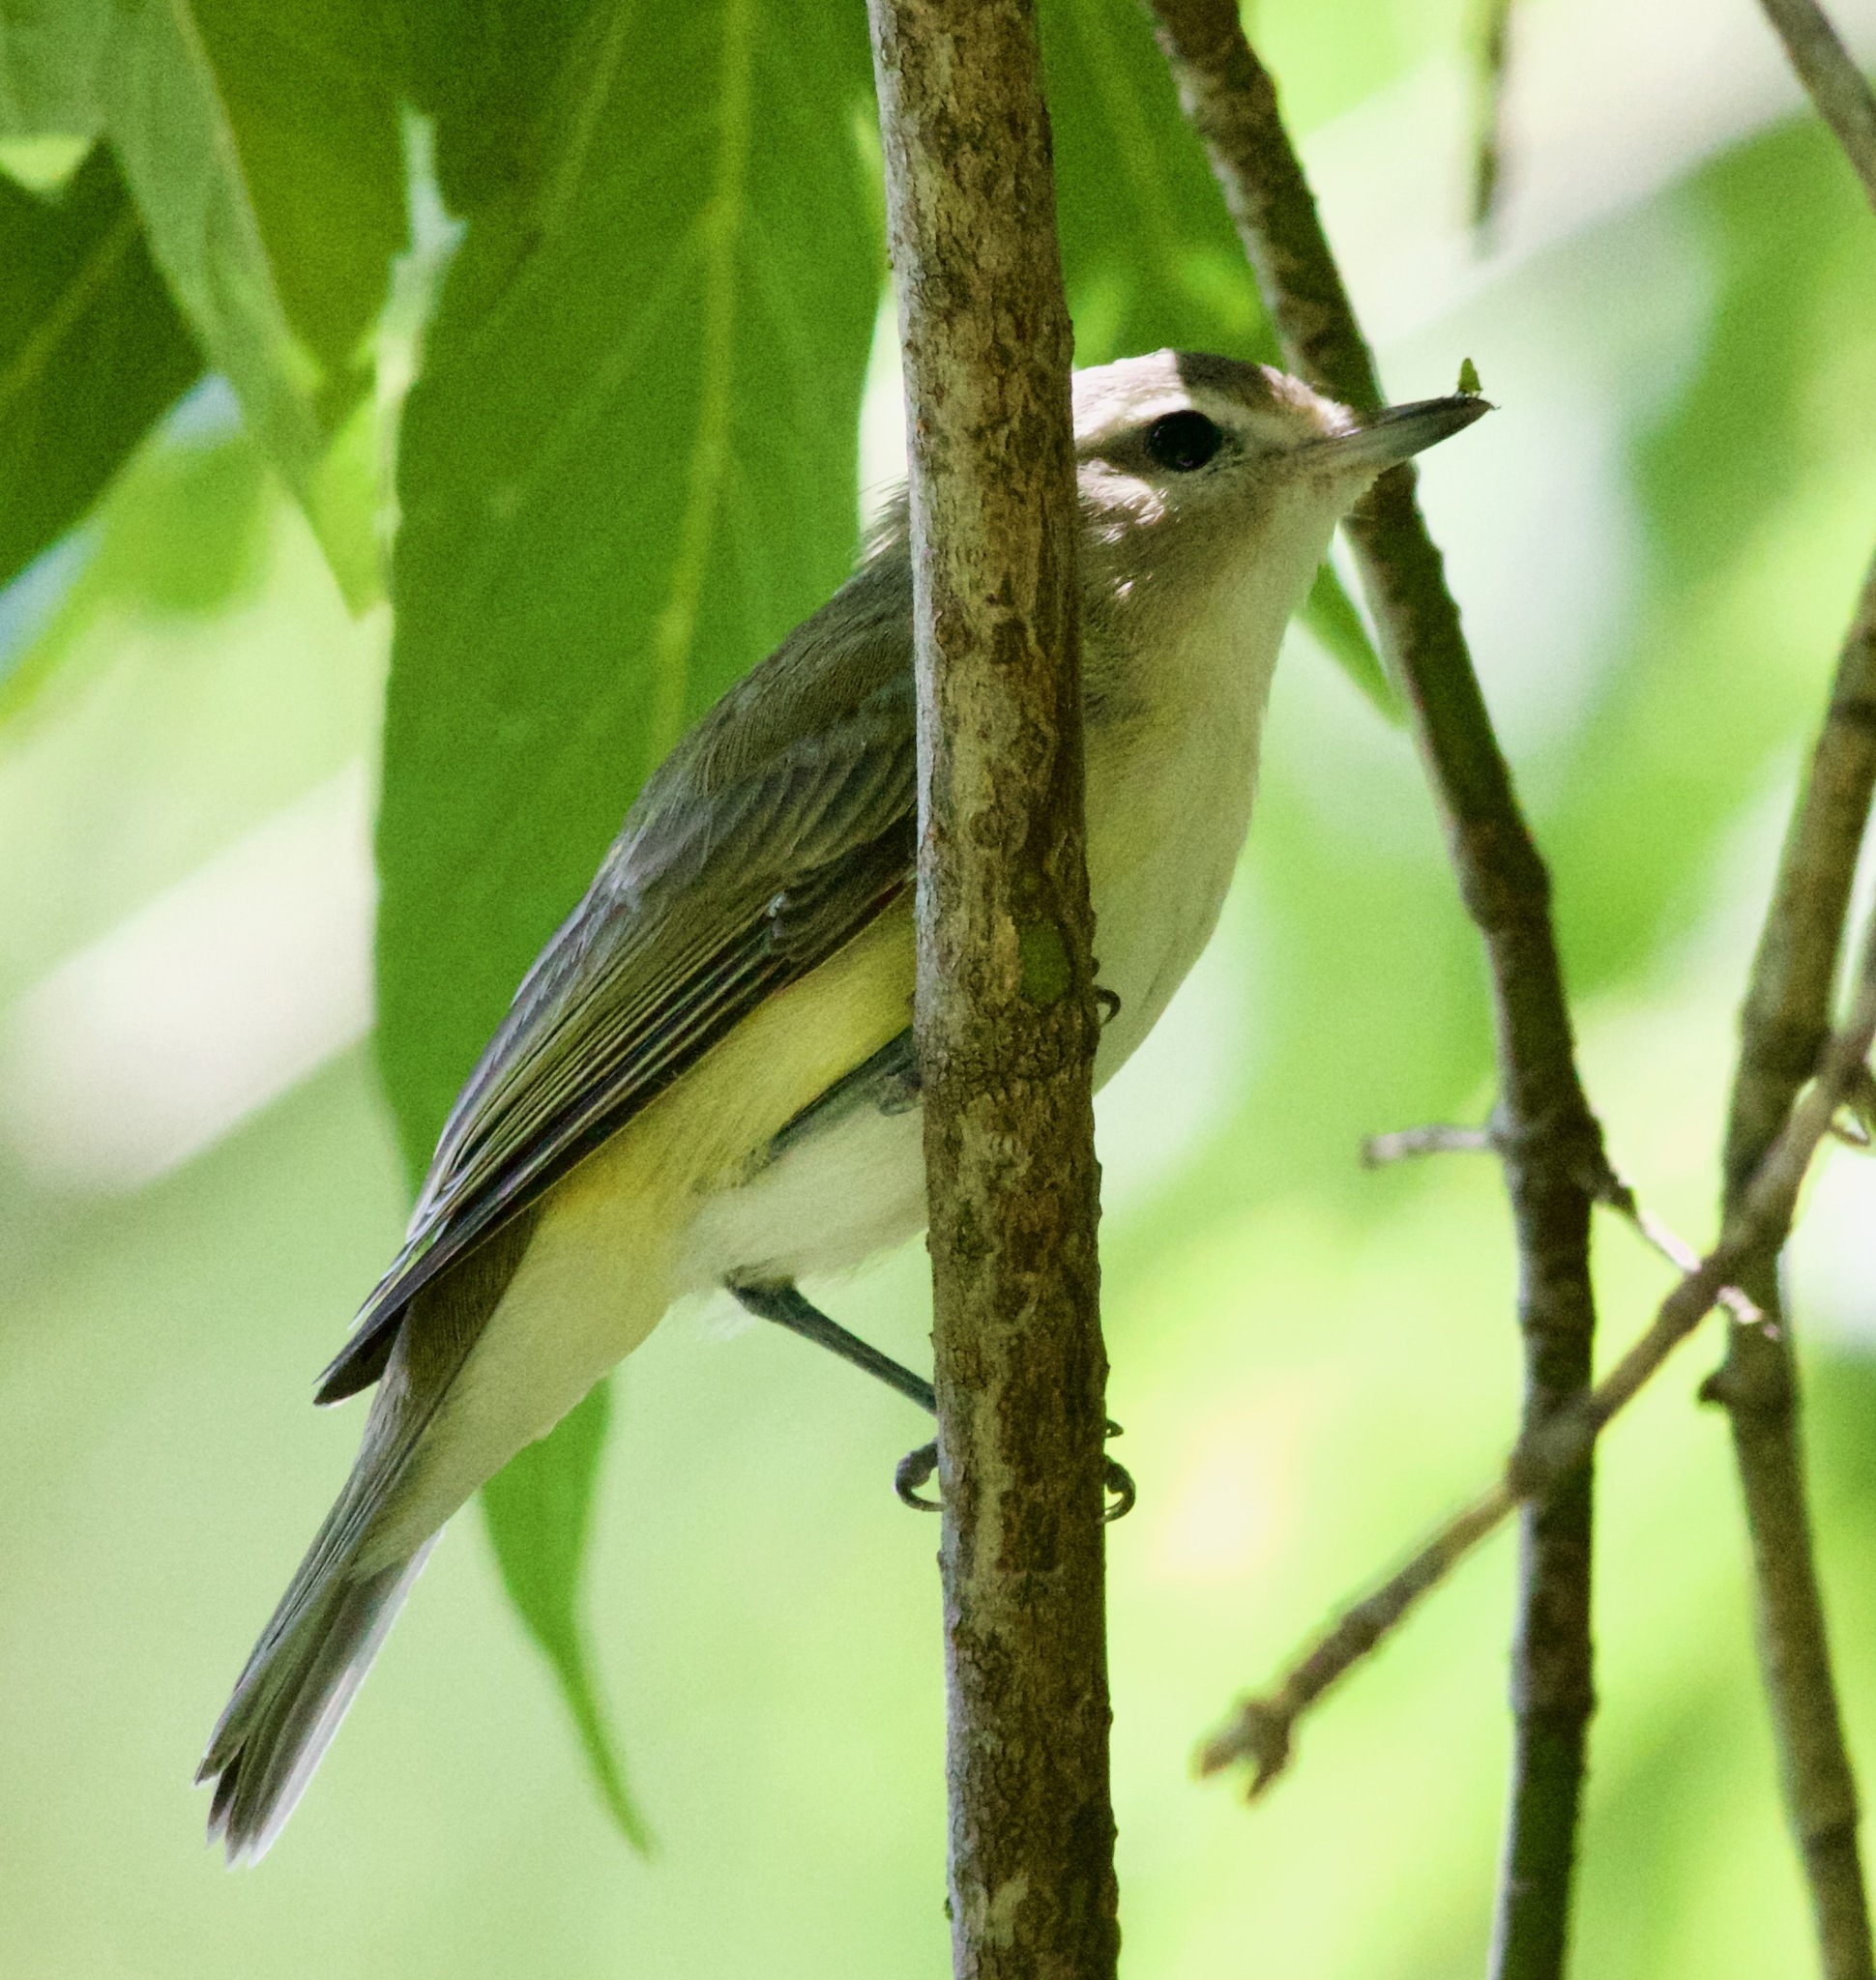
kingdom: Animalia
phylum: Chordata
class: Aves
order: Passeriformes
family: Vireonidae
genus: Vireo
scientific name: Vireo gilvus
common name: Warbling vireo
